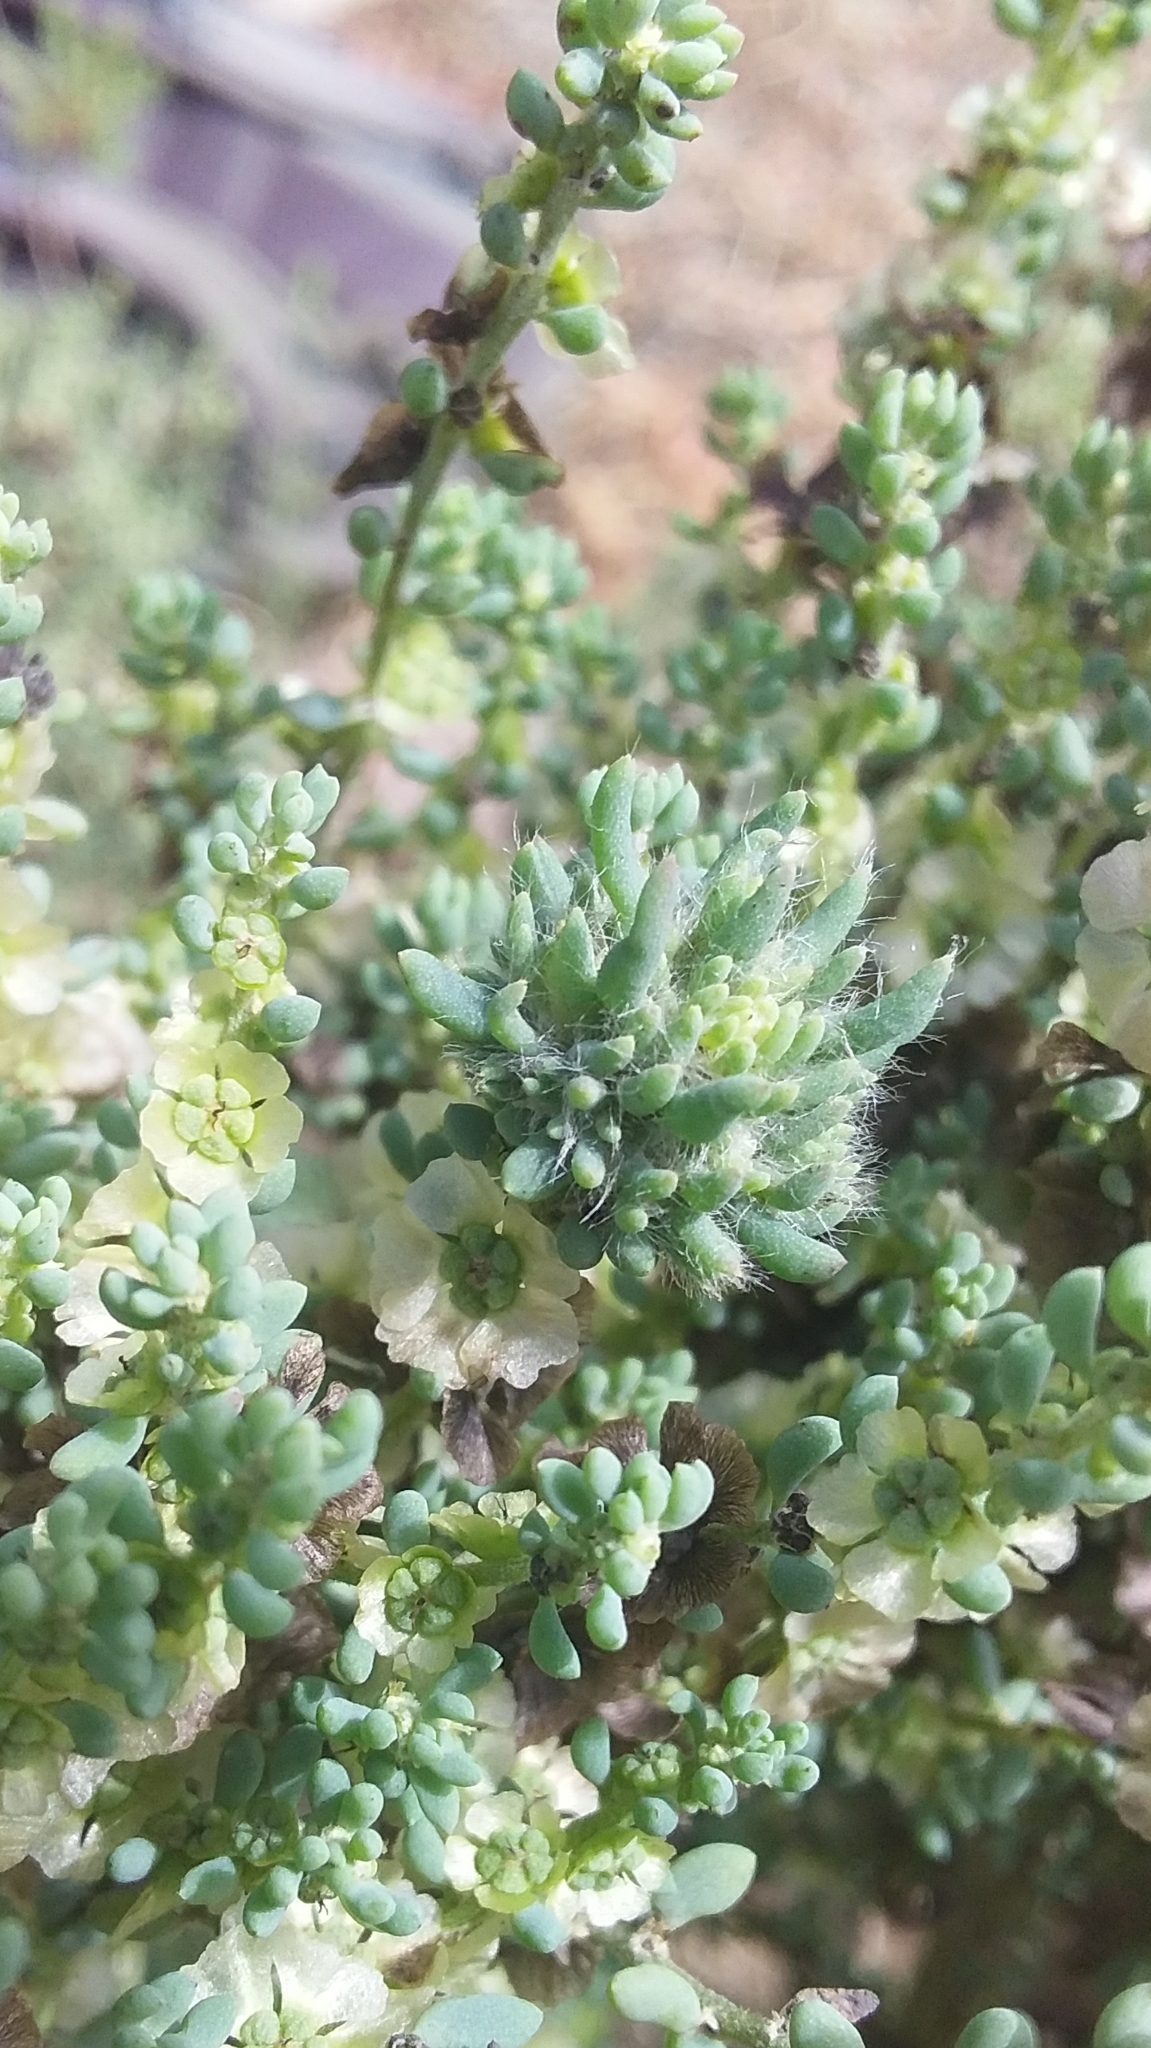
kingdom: Animalia
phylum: Arthropoda
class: Insecta
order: Diptera
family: Cecidomyiidae
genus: Dactylasioptera
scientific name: Dactylasioptera milnae
